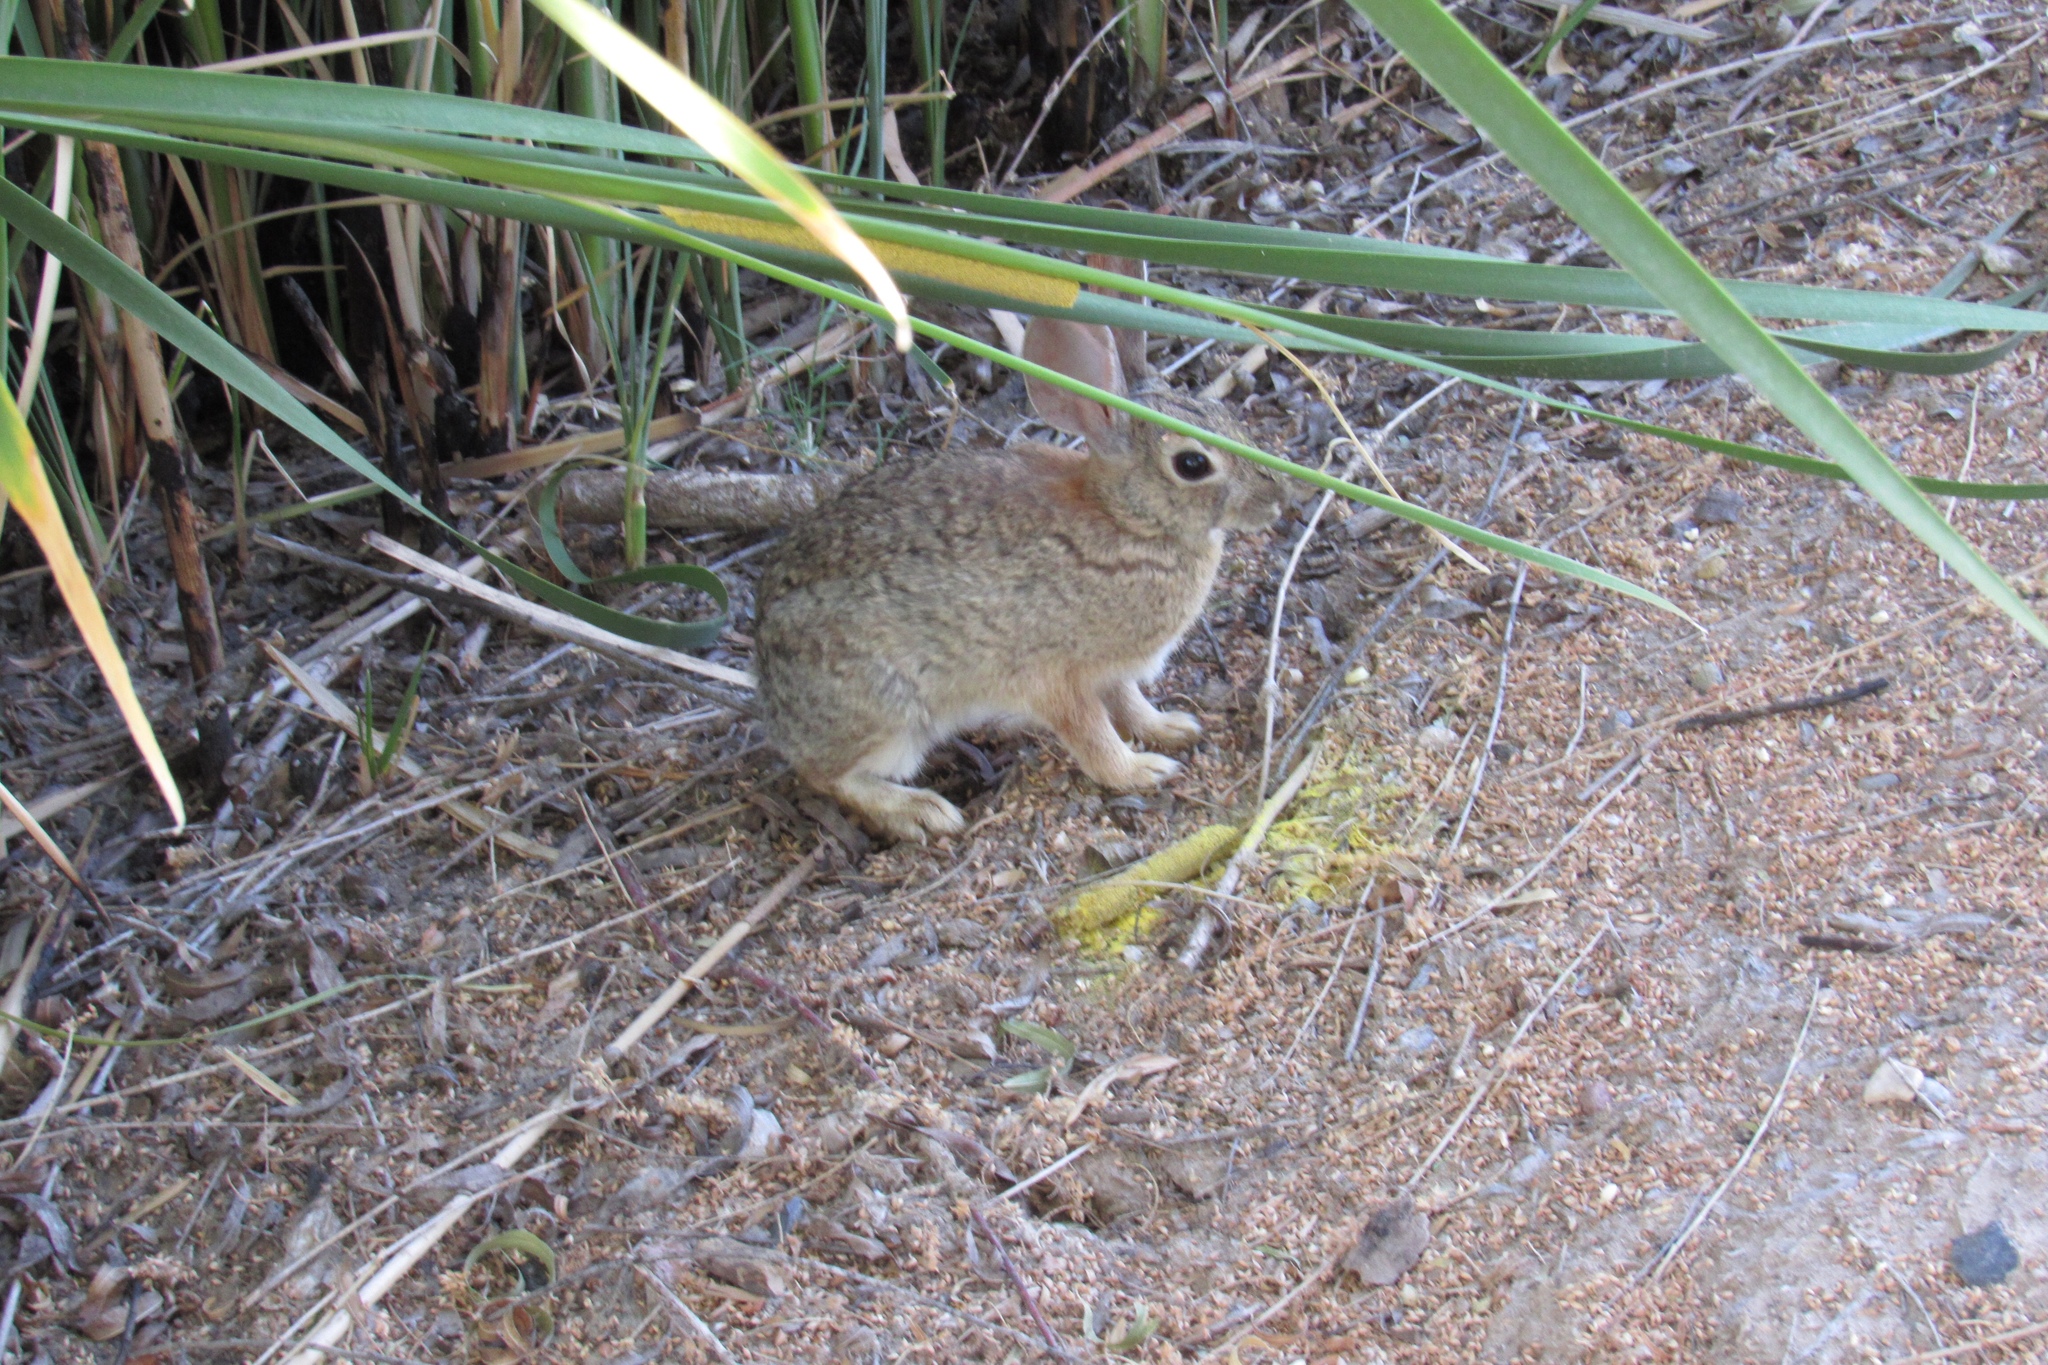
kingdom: Animalia
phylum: Chordata
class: Mammalia
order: Lagomorpha
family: Leporidae
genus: Sylvilagus
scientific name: Sylvilagus audubonii
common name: Desert cottontail
